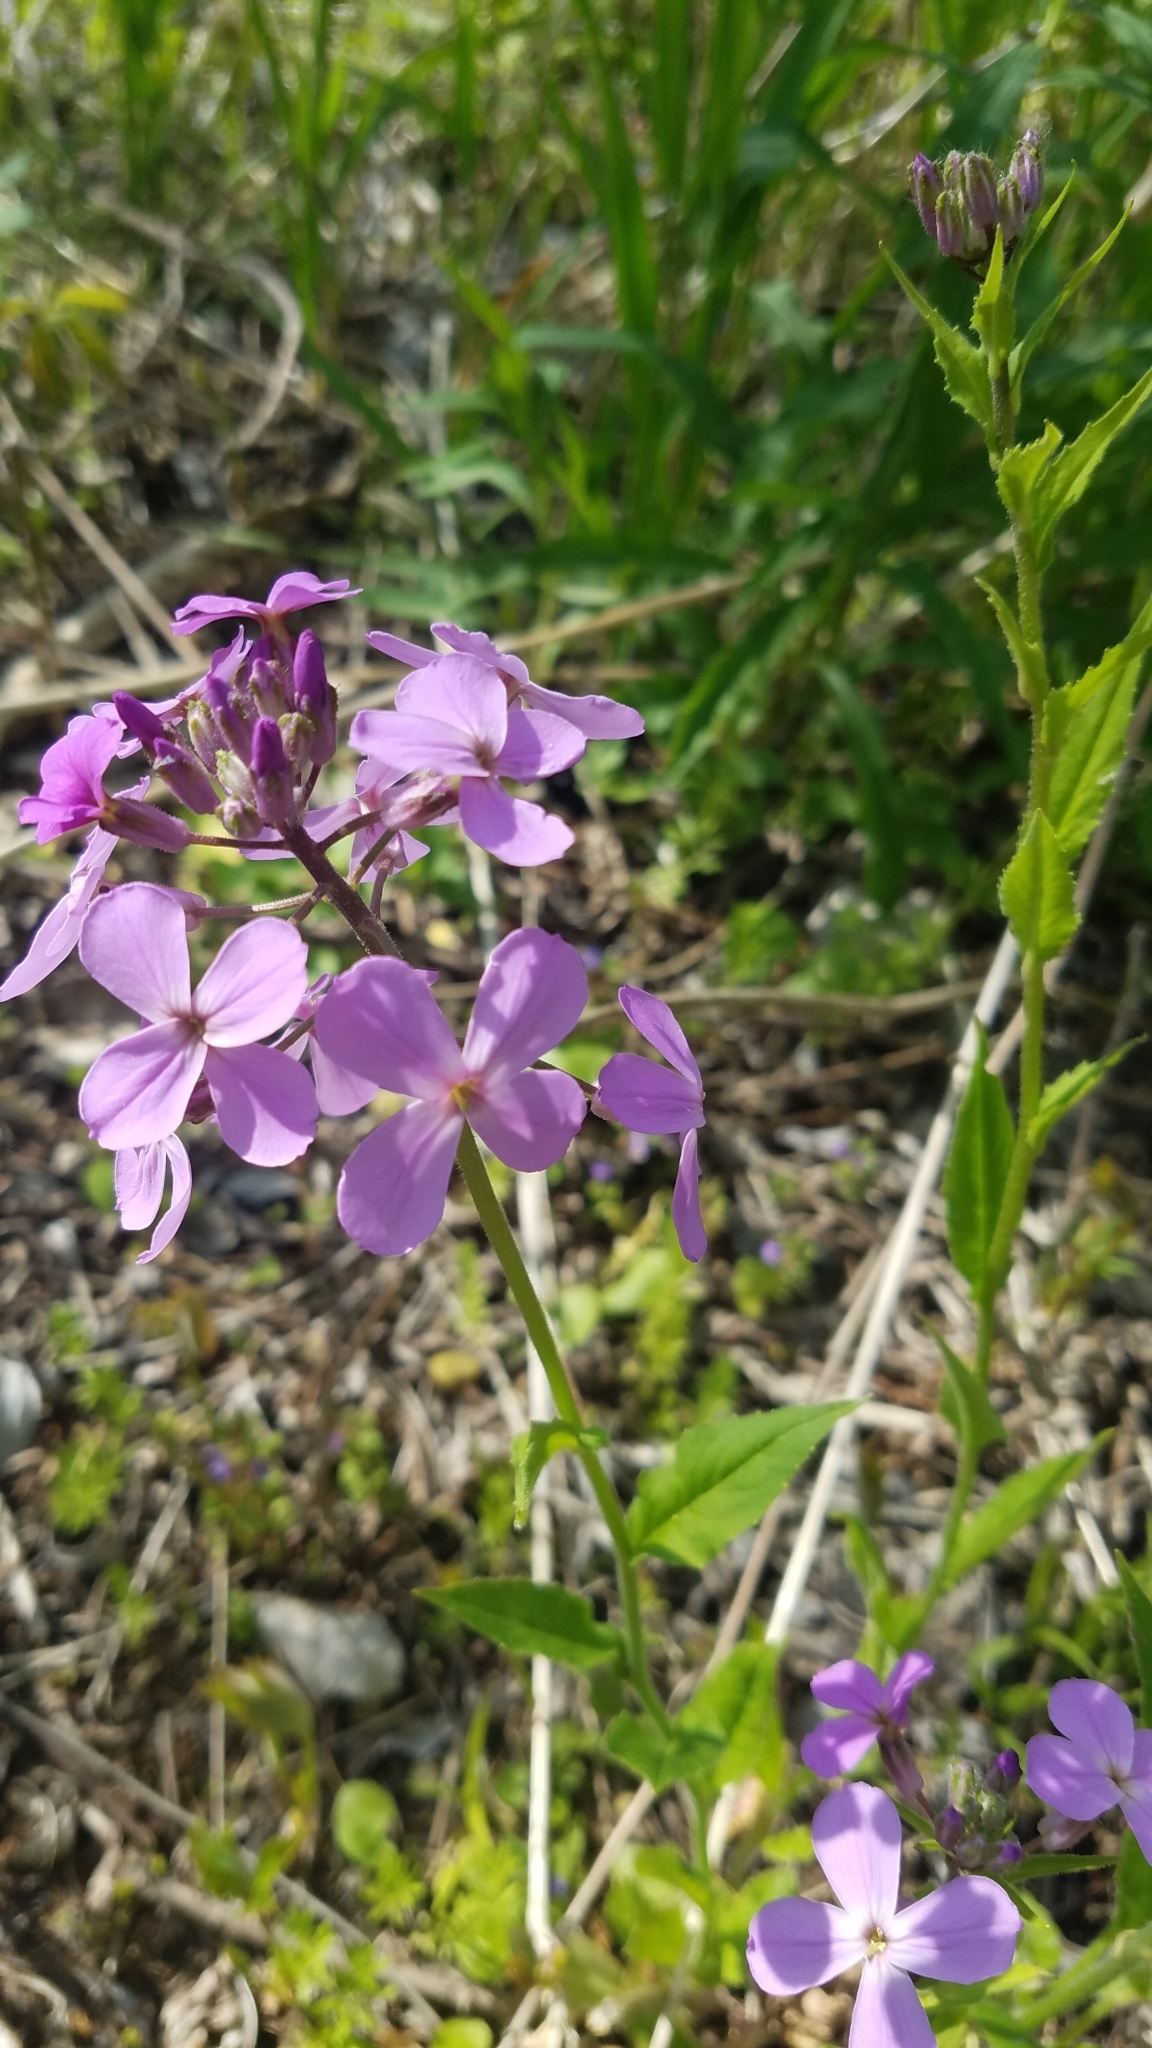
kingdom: Plantae
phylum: Tracheophyta
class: Magnoliopsida
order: Brassicales
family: Brassicaceae
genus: Hesperis
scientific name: Hesperis matronalis
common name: Dame's-violet
